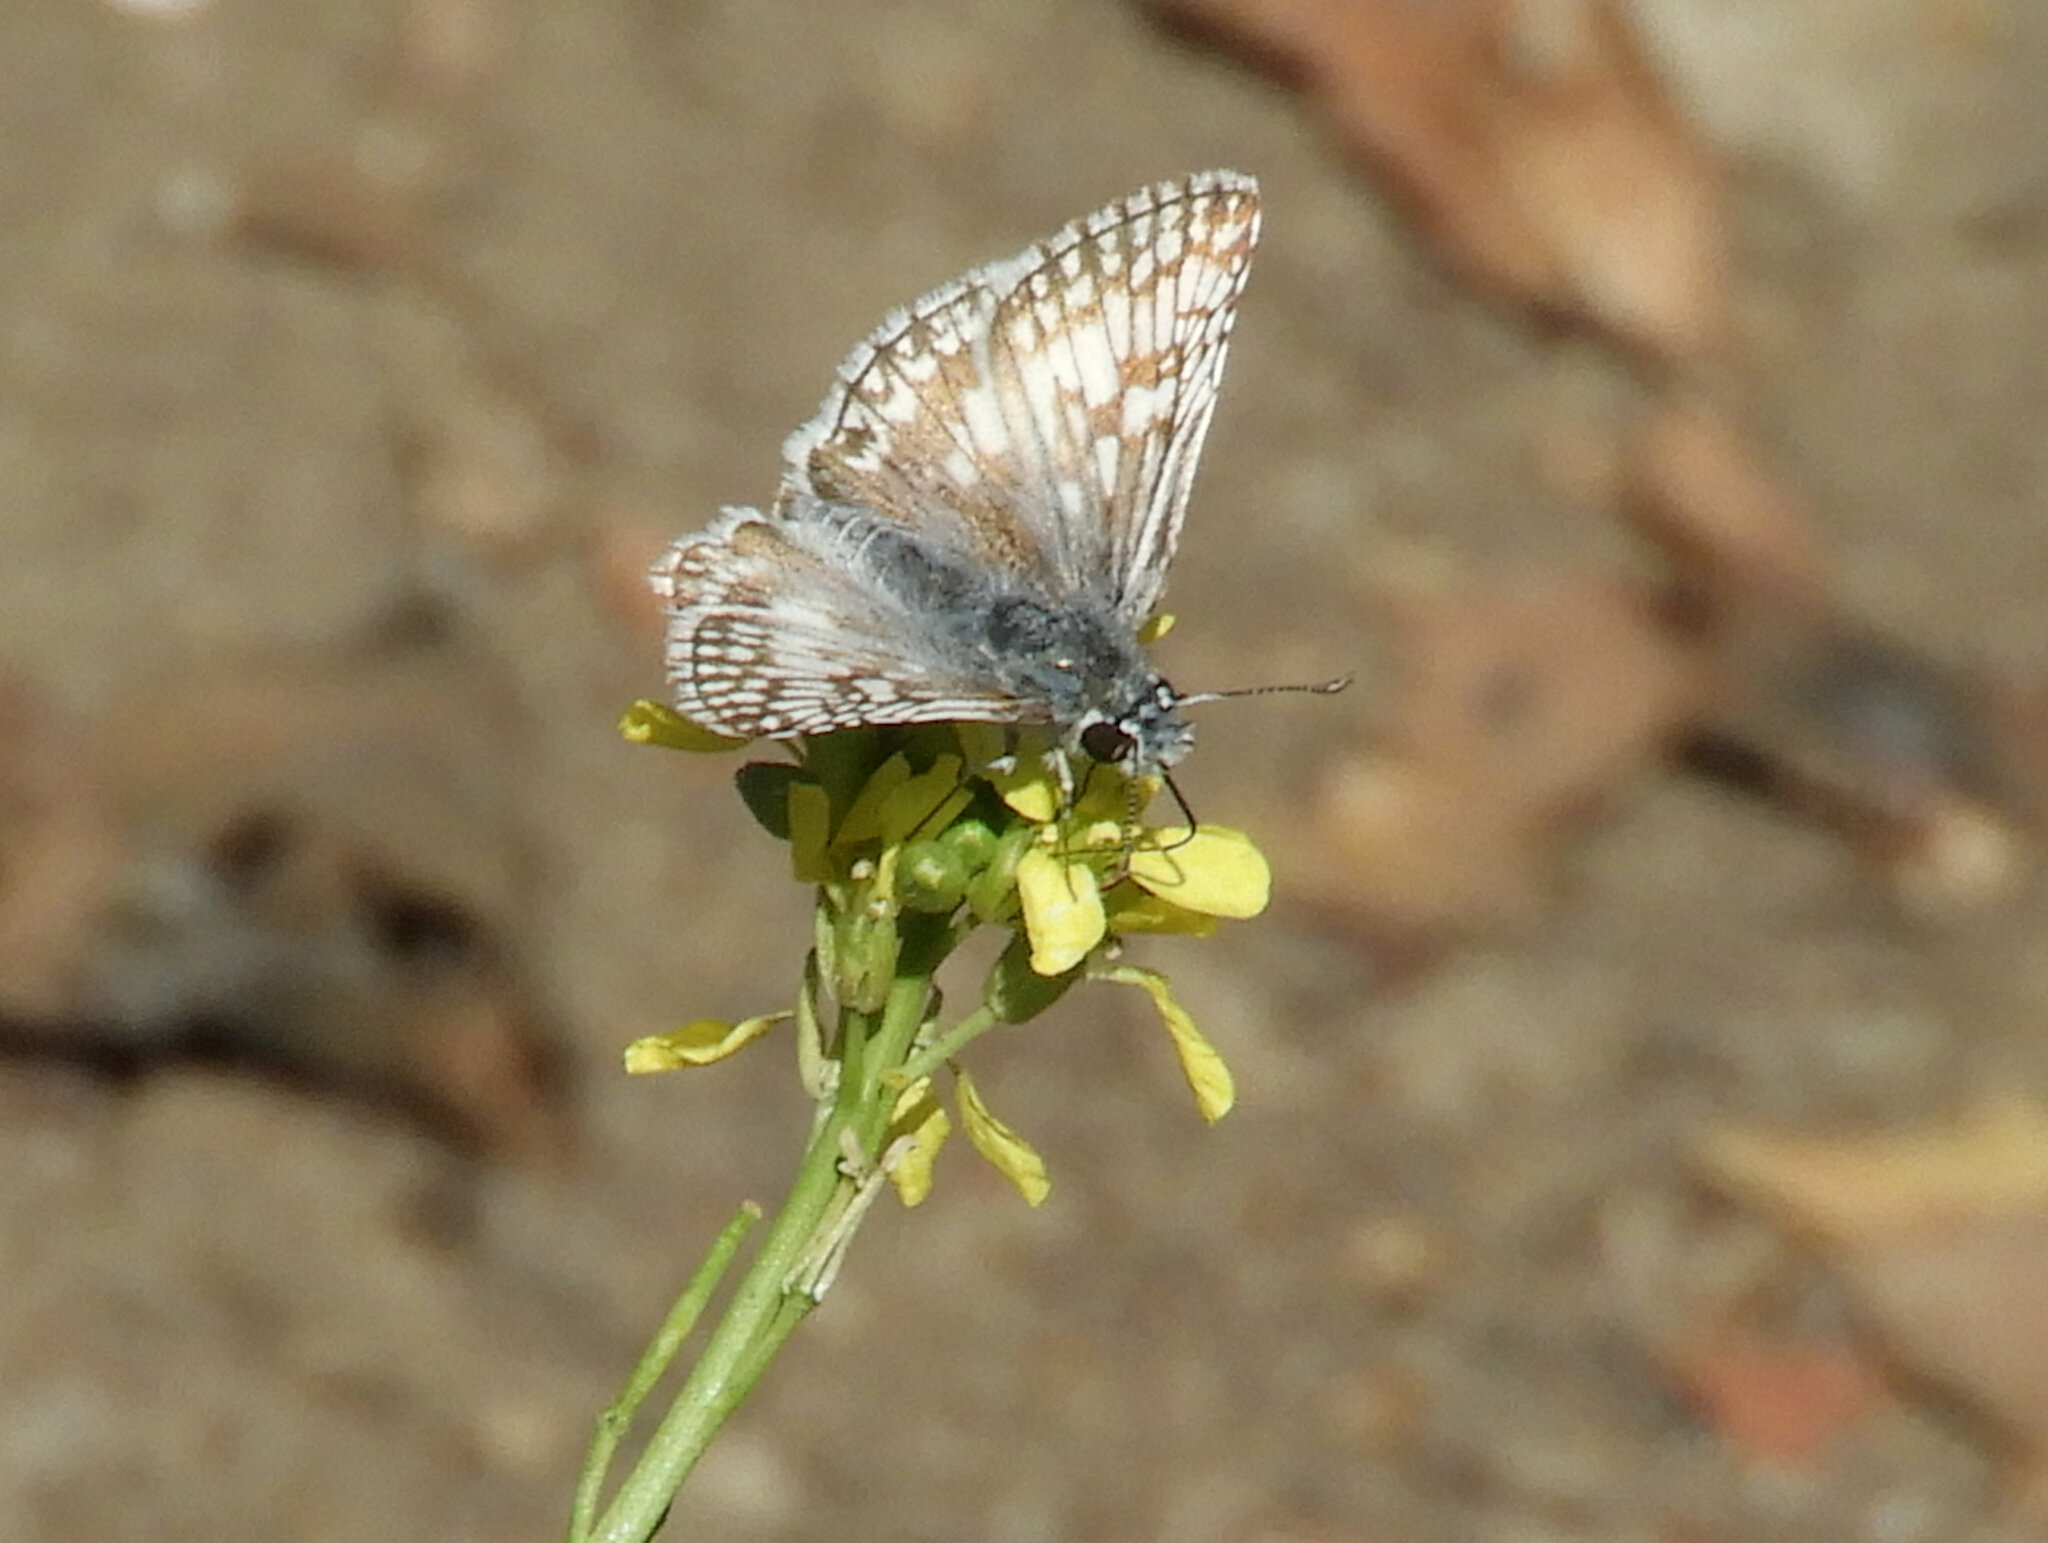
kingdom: Animalia
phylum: Arthropoda
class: Insecta
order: Lepidoptera
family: Hesperiidae
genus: Burnsius
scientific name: Burnsius communis
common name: Common checkered-skipper
